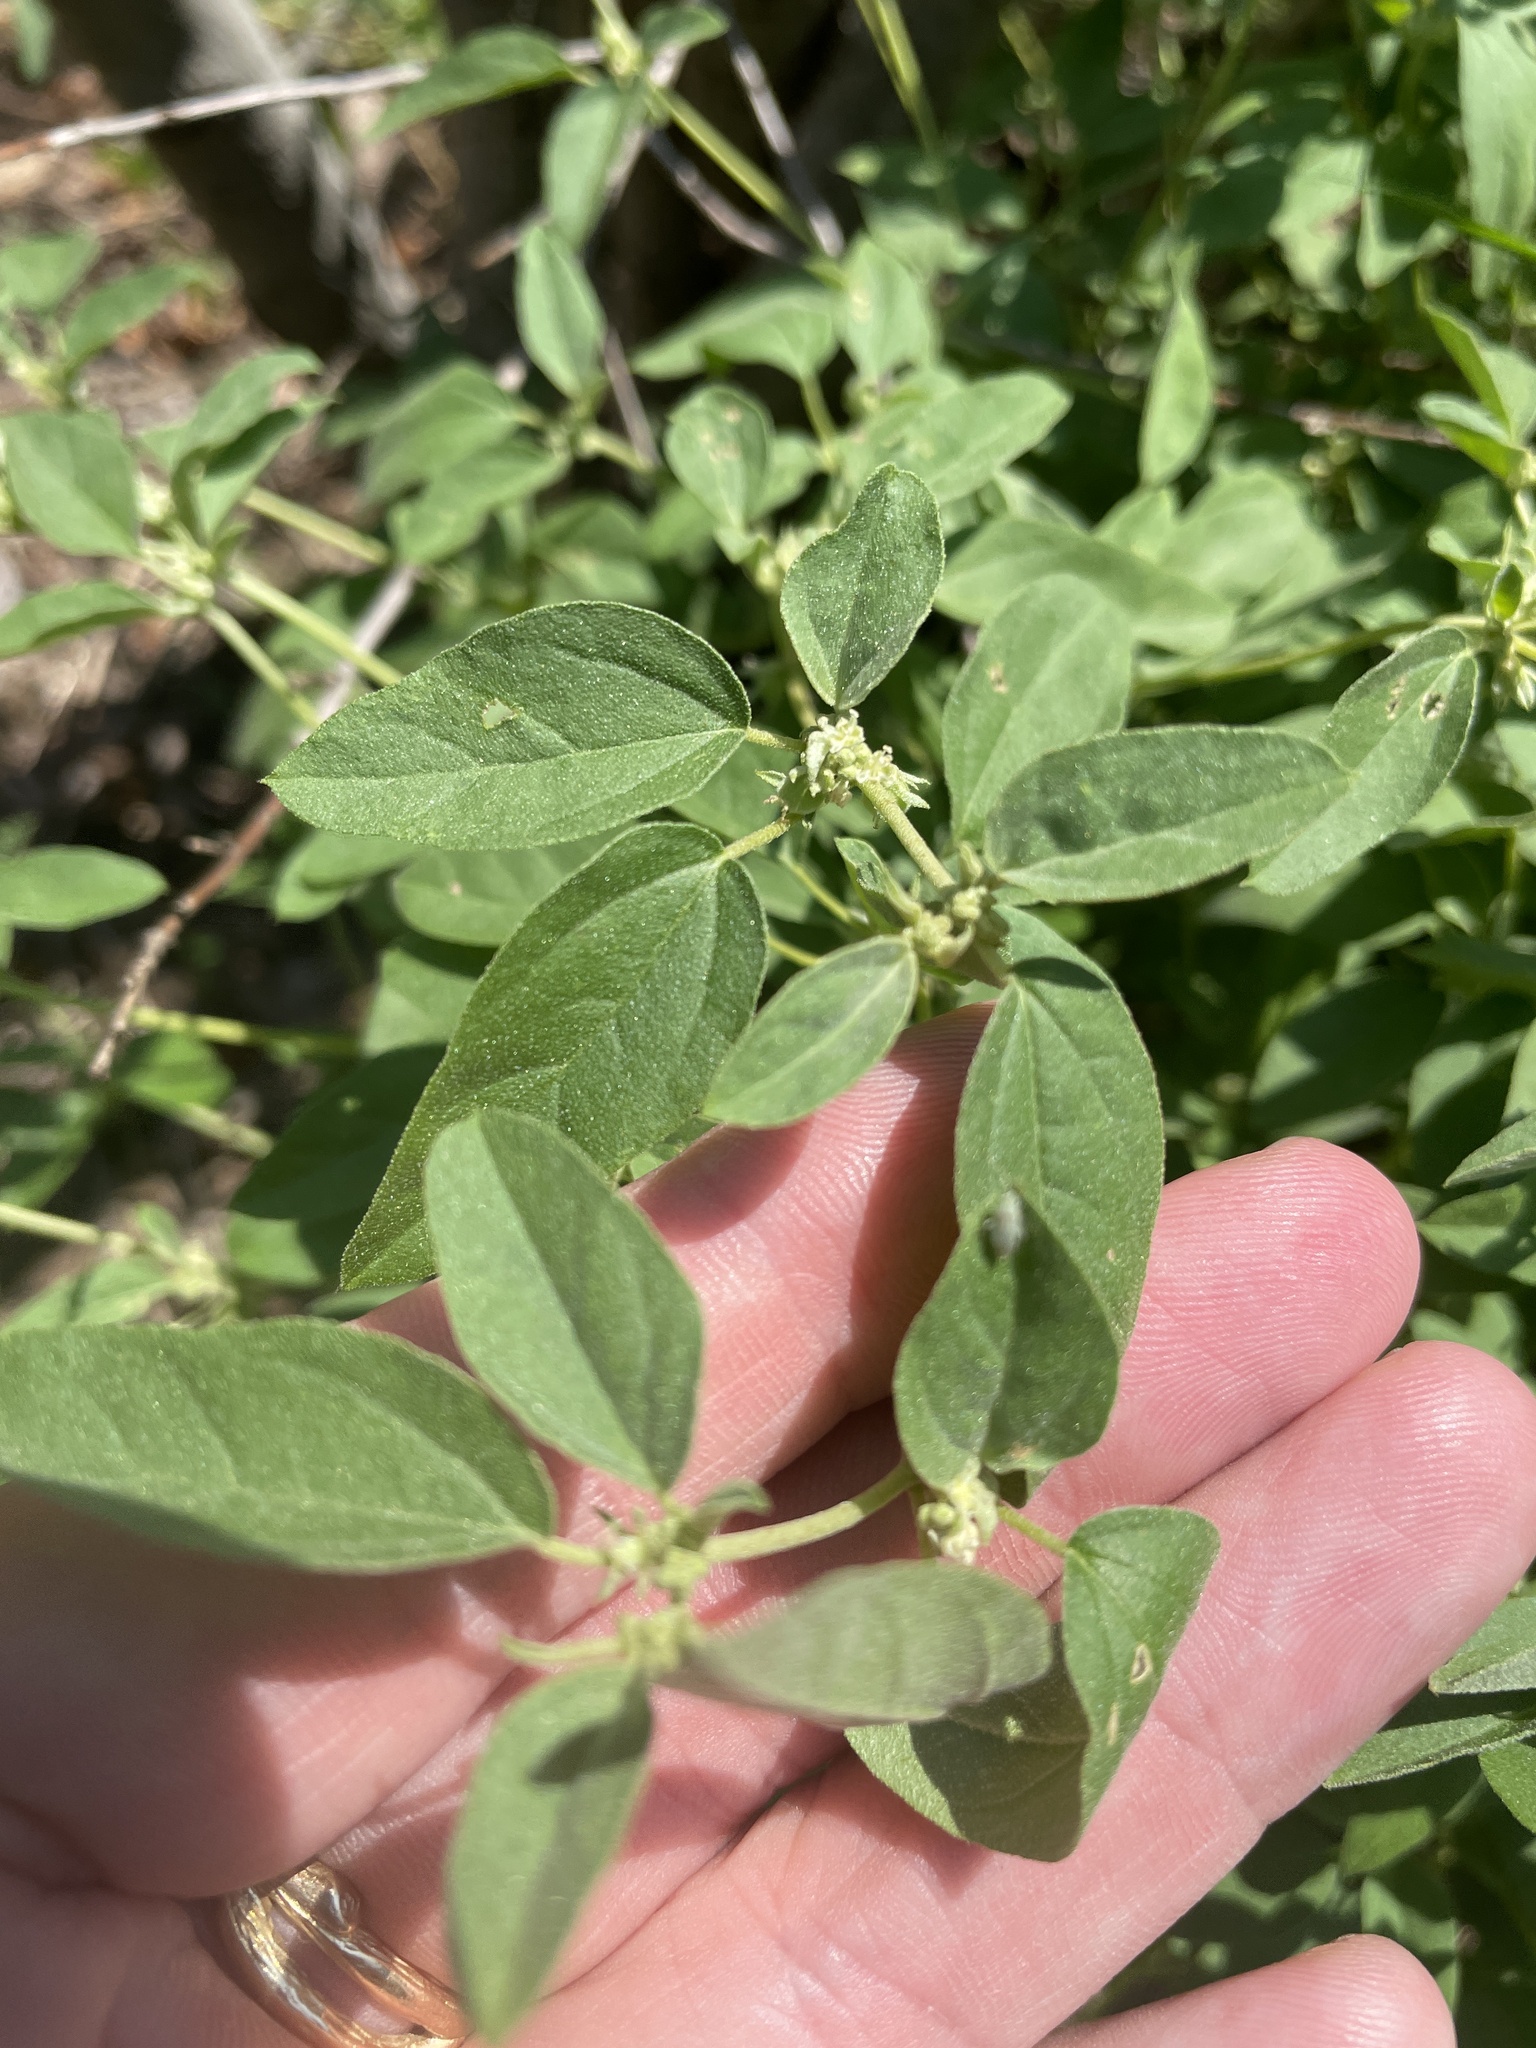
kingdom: Plantae
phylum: Tracheophyta
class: Magnoliopsida
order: Malpighiales
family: Euphorbiaceae
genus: Croton
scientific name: Croton monanthogynus
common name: One-seed croton
